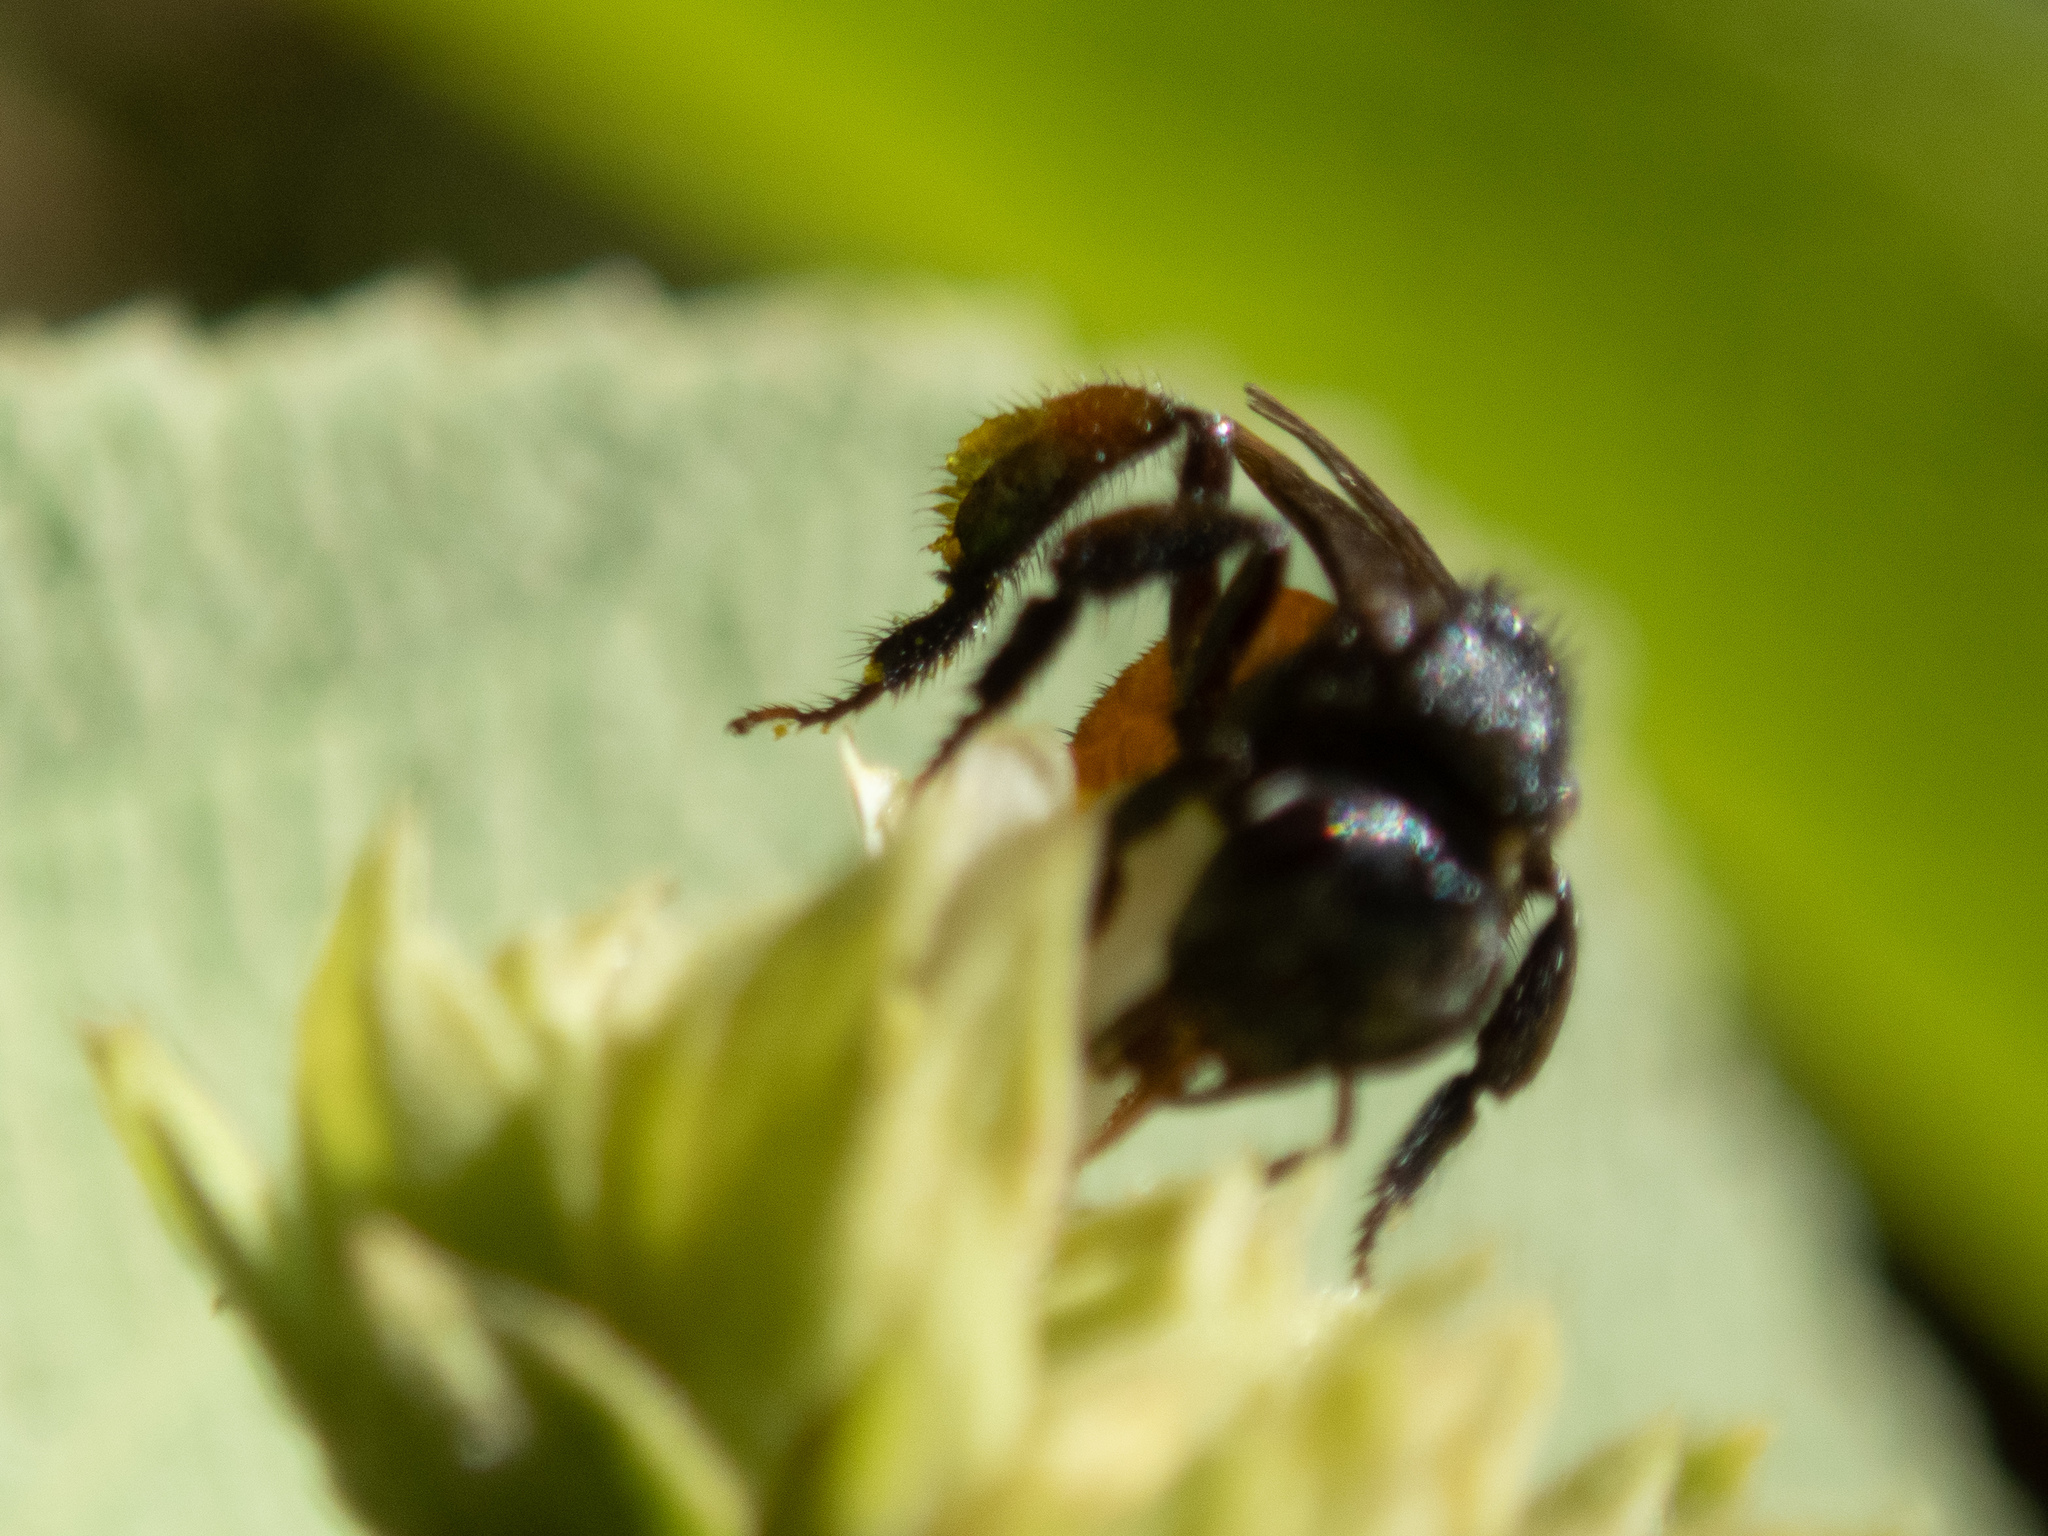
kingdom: Animalia
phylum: Arthropoda
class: Insecta
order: Hymenoptera
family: Apidae
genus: Trigona
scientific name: Trigona fulviventris
